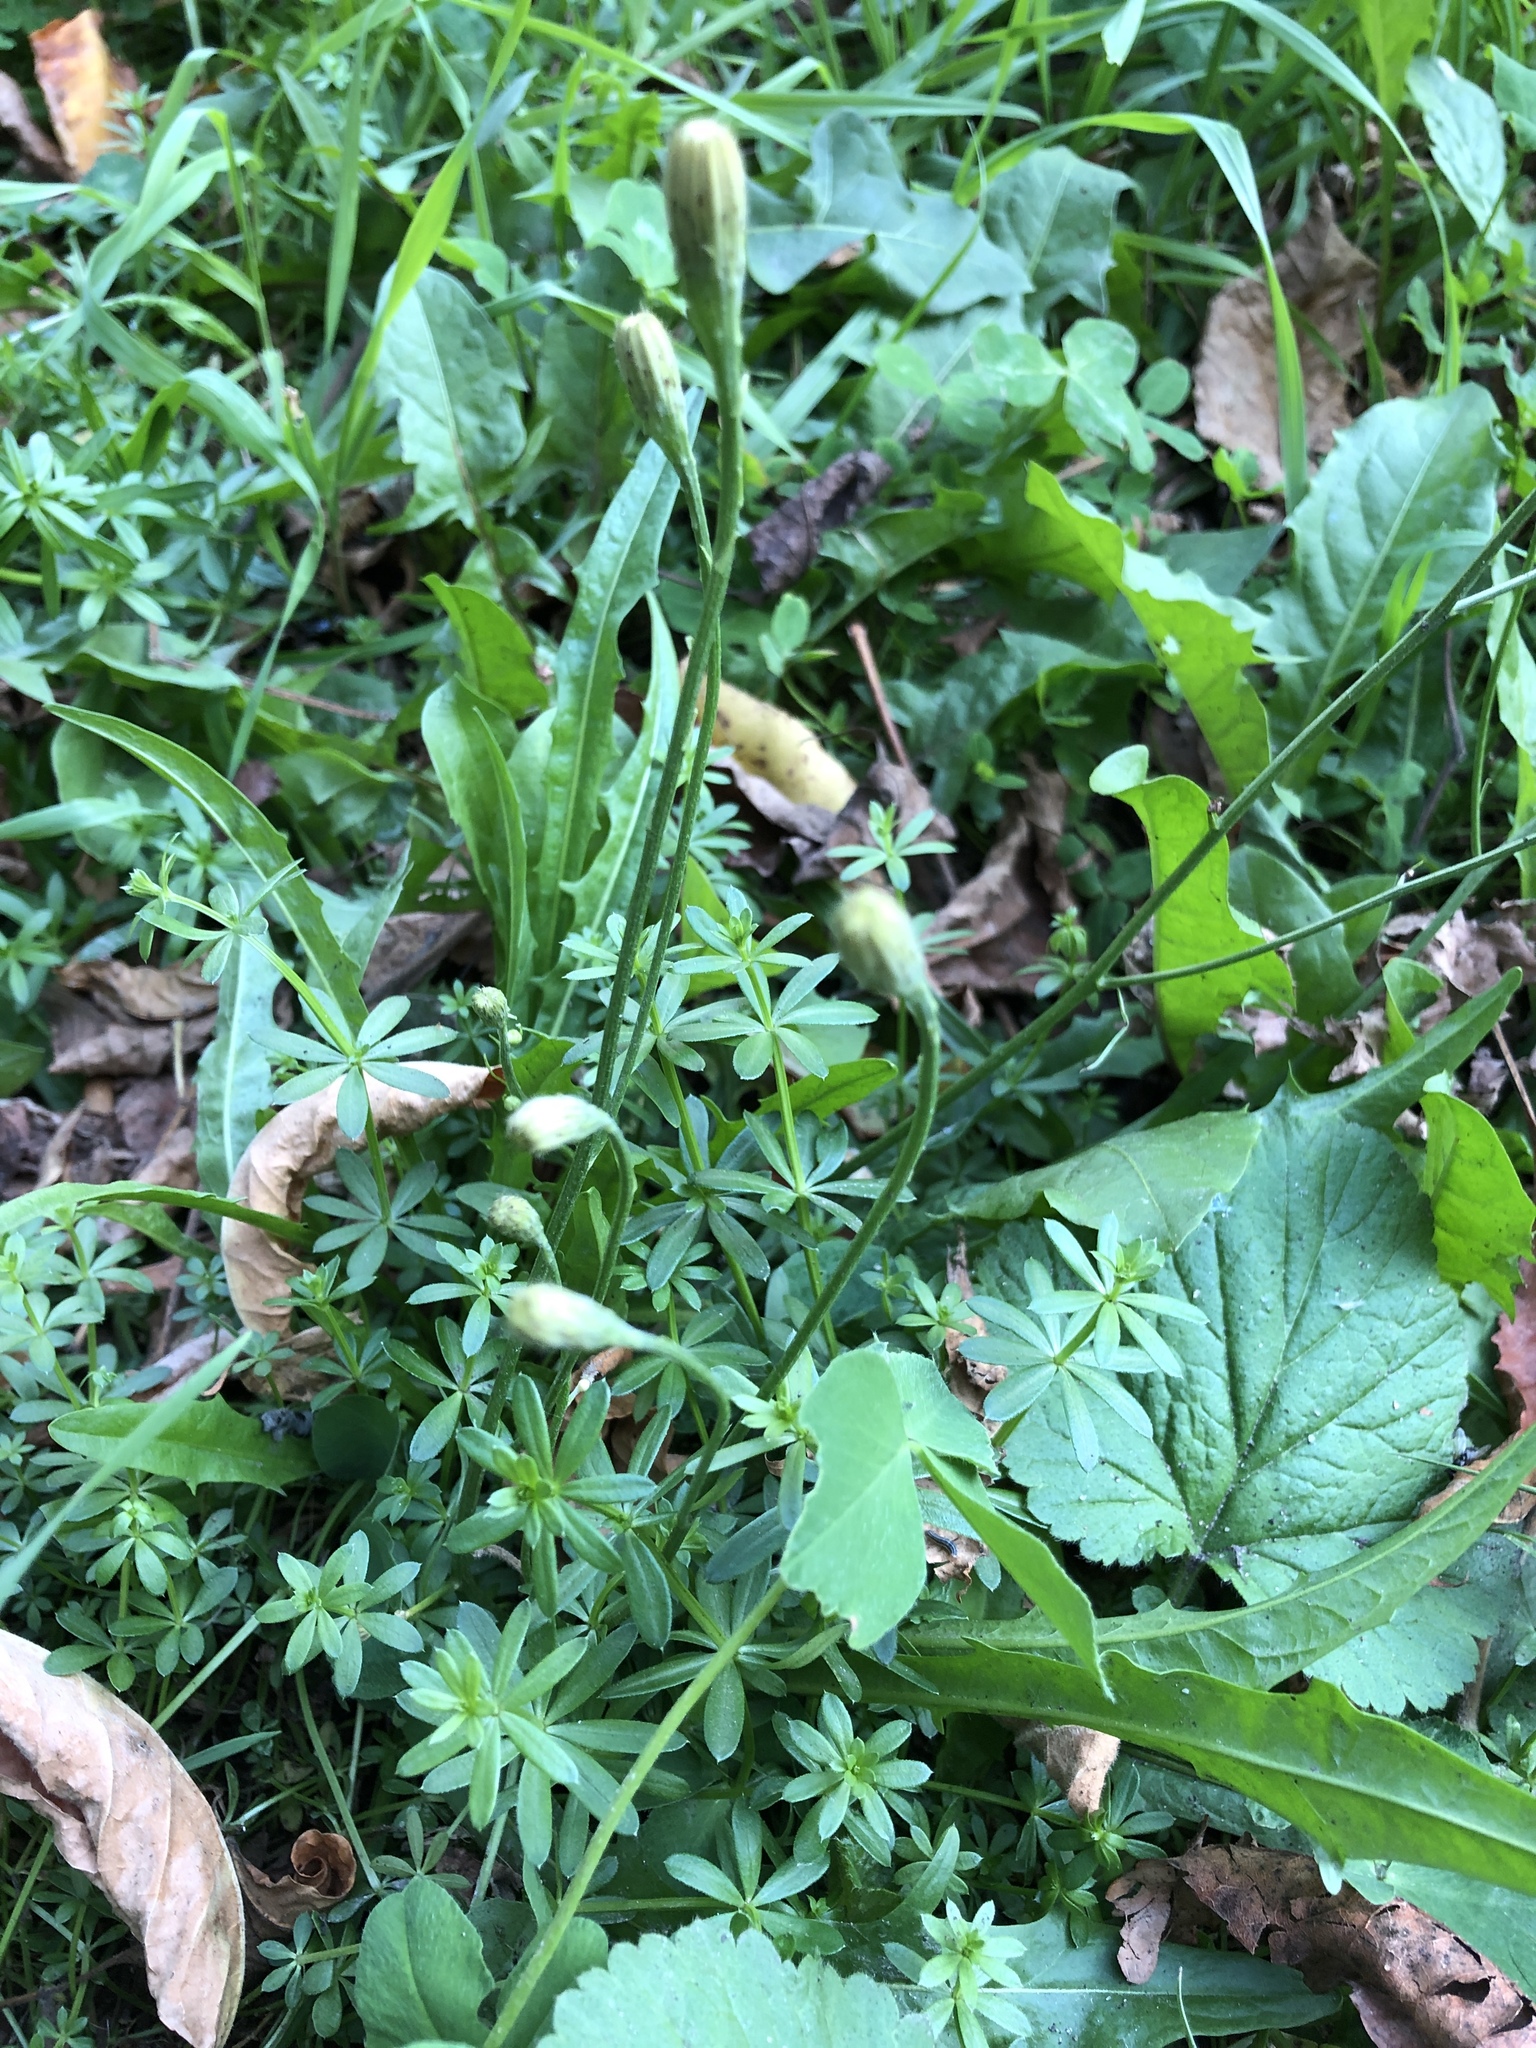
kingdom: Plantae
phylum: Tracheophyta
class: Magnoliopsida
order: Asterales
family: Asteraceae
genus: Scorzoneroides
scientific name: Scorzoneroides autumnalis
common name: Autumn hawkbit
